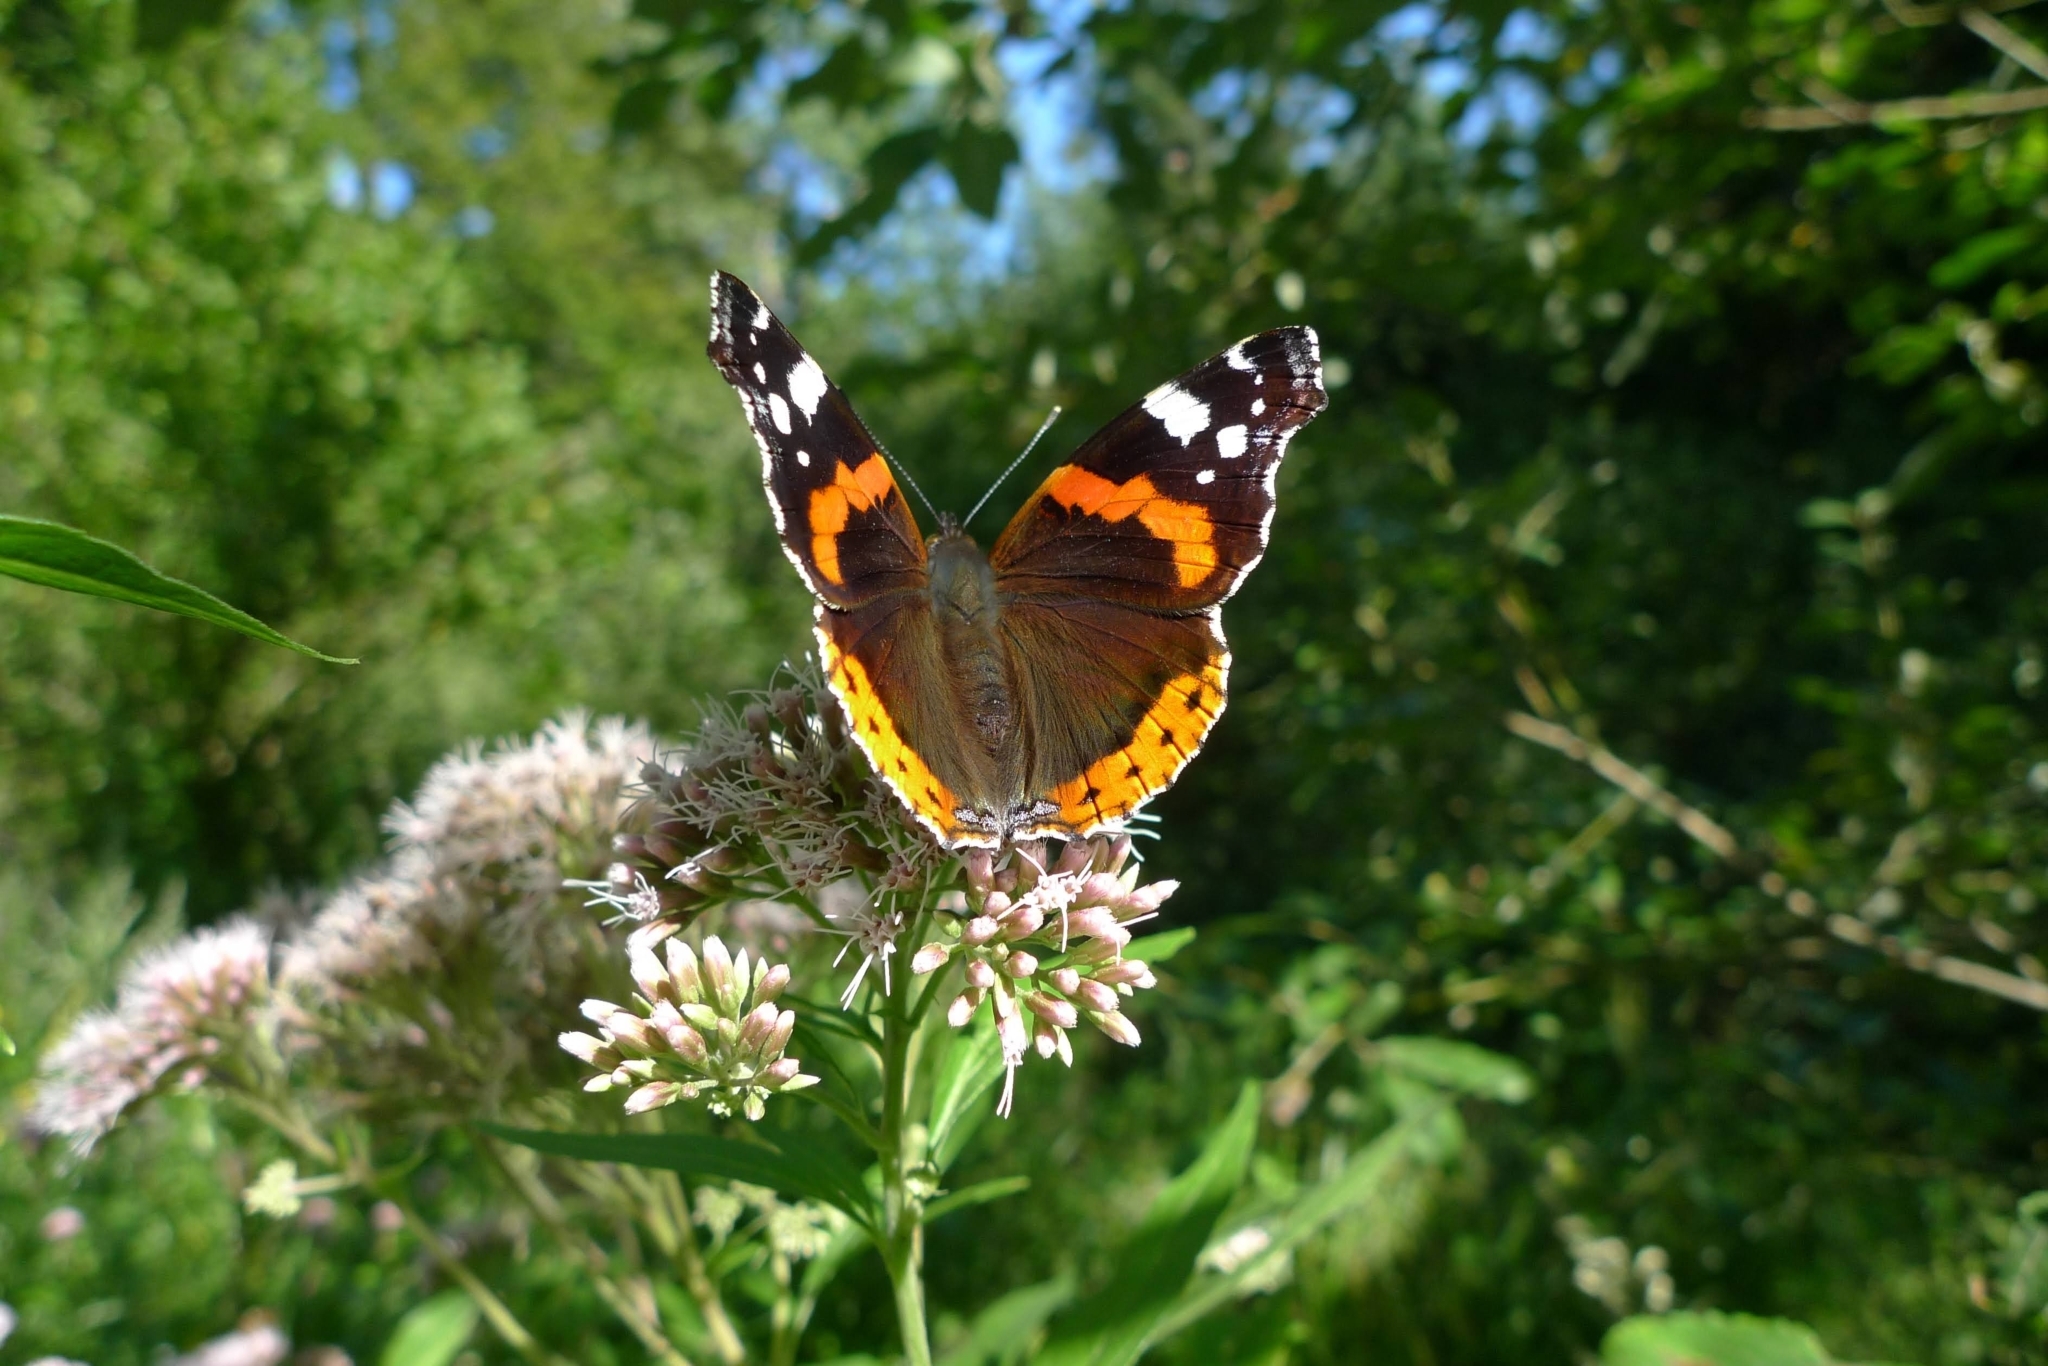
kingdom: Animalia
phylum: Arthropoda
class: Insecta
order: Lepidoptera
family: Nymphalidae
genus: Vanessa
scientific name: Vanessa atalanta
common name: Red admiral
